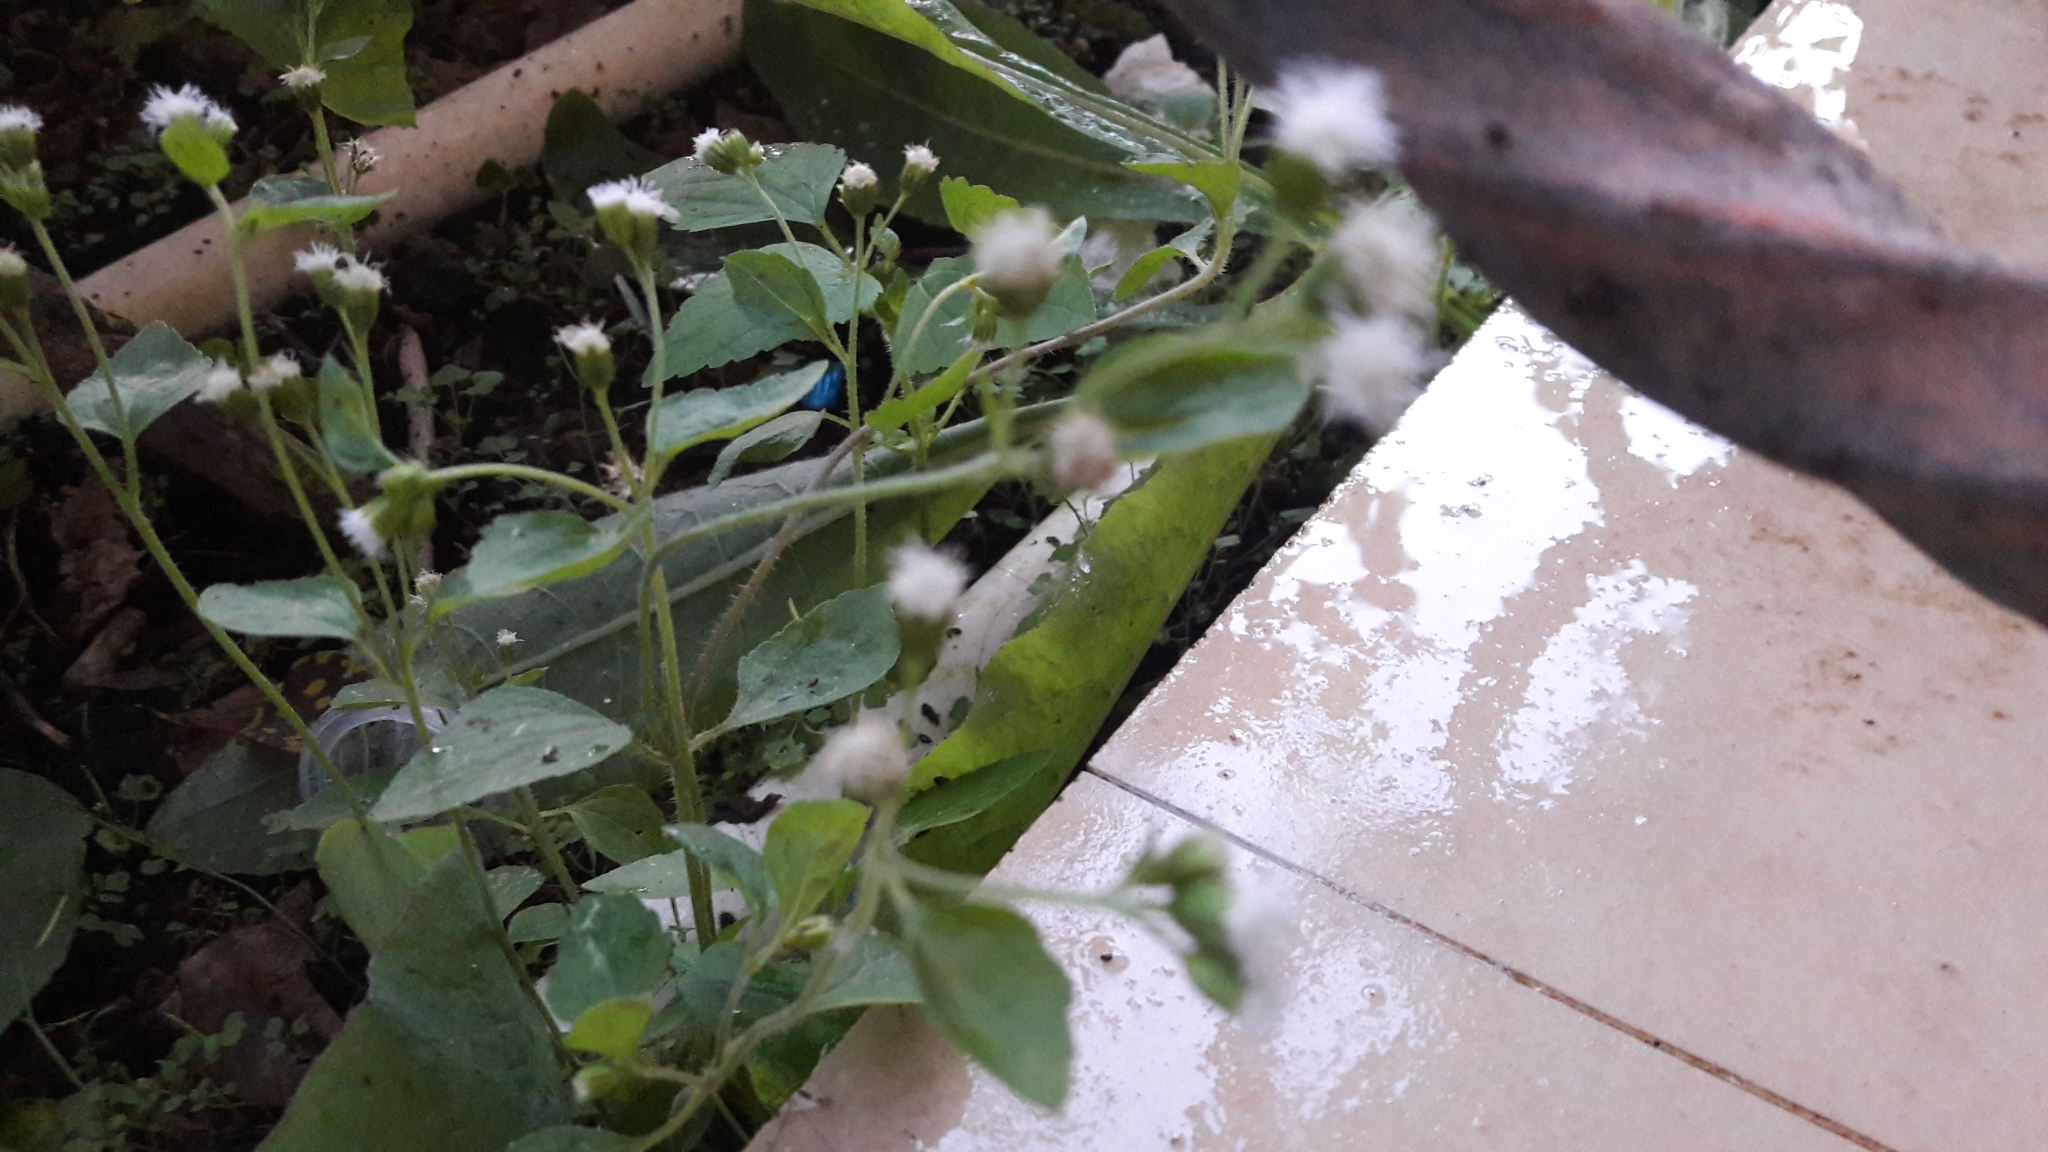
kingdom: Plantae
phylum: Tracheophyta
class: Magnoliopsida
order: Asterales
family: Asteraceae
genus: Ageratum
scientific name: Ageratum conyzoides
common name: Tropical whiteweed
